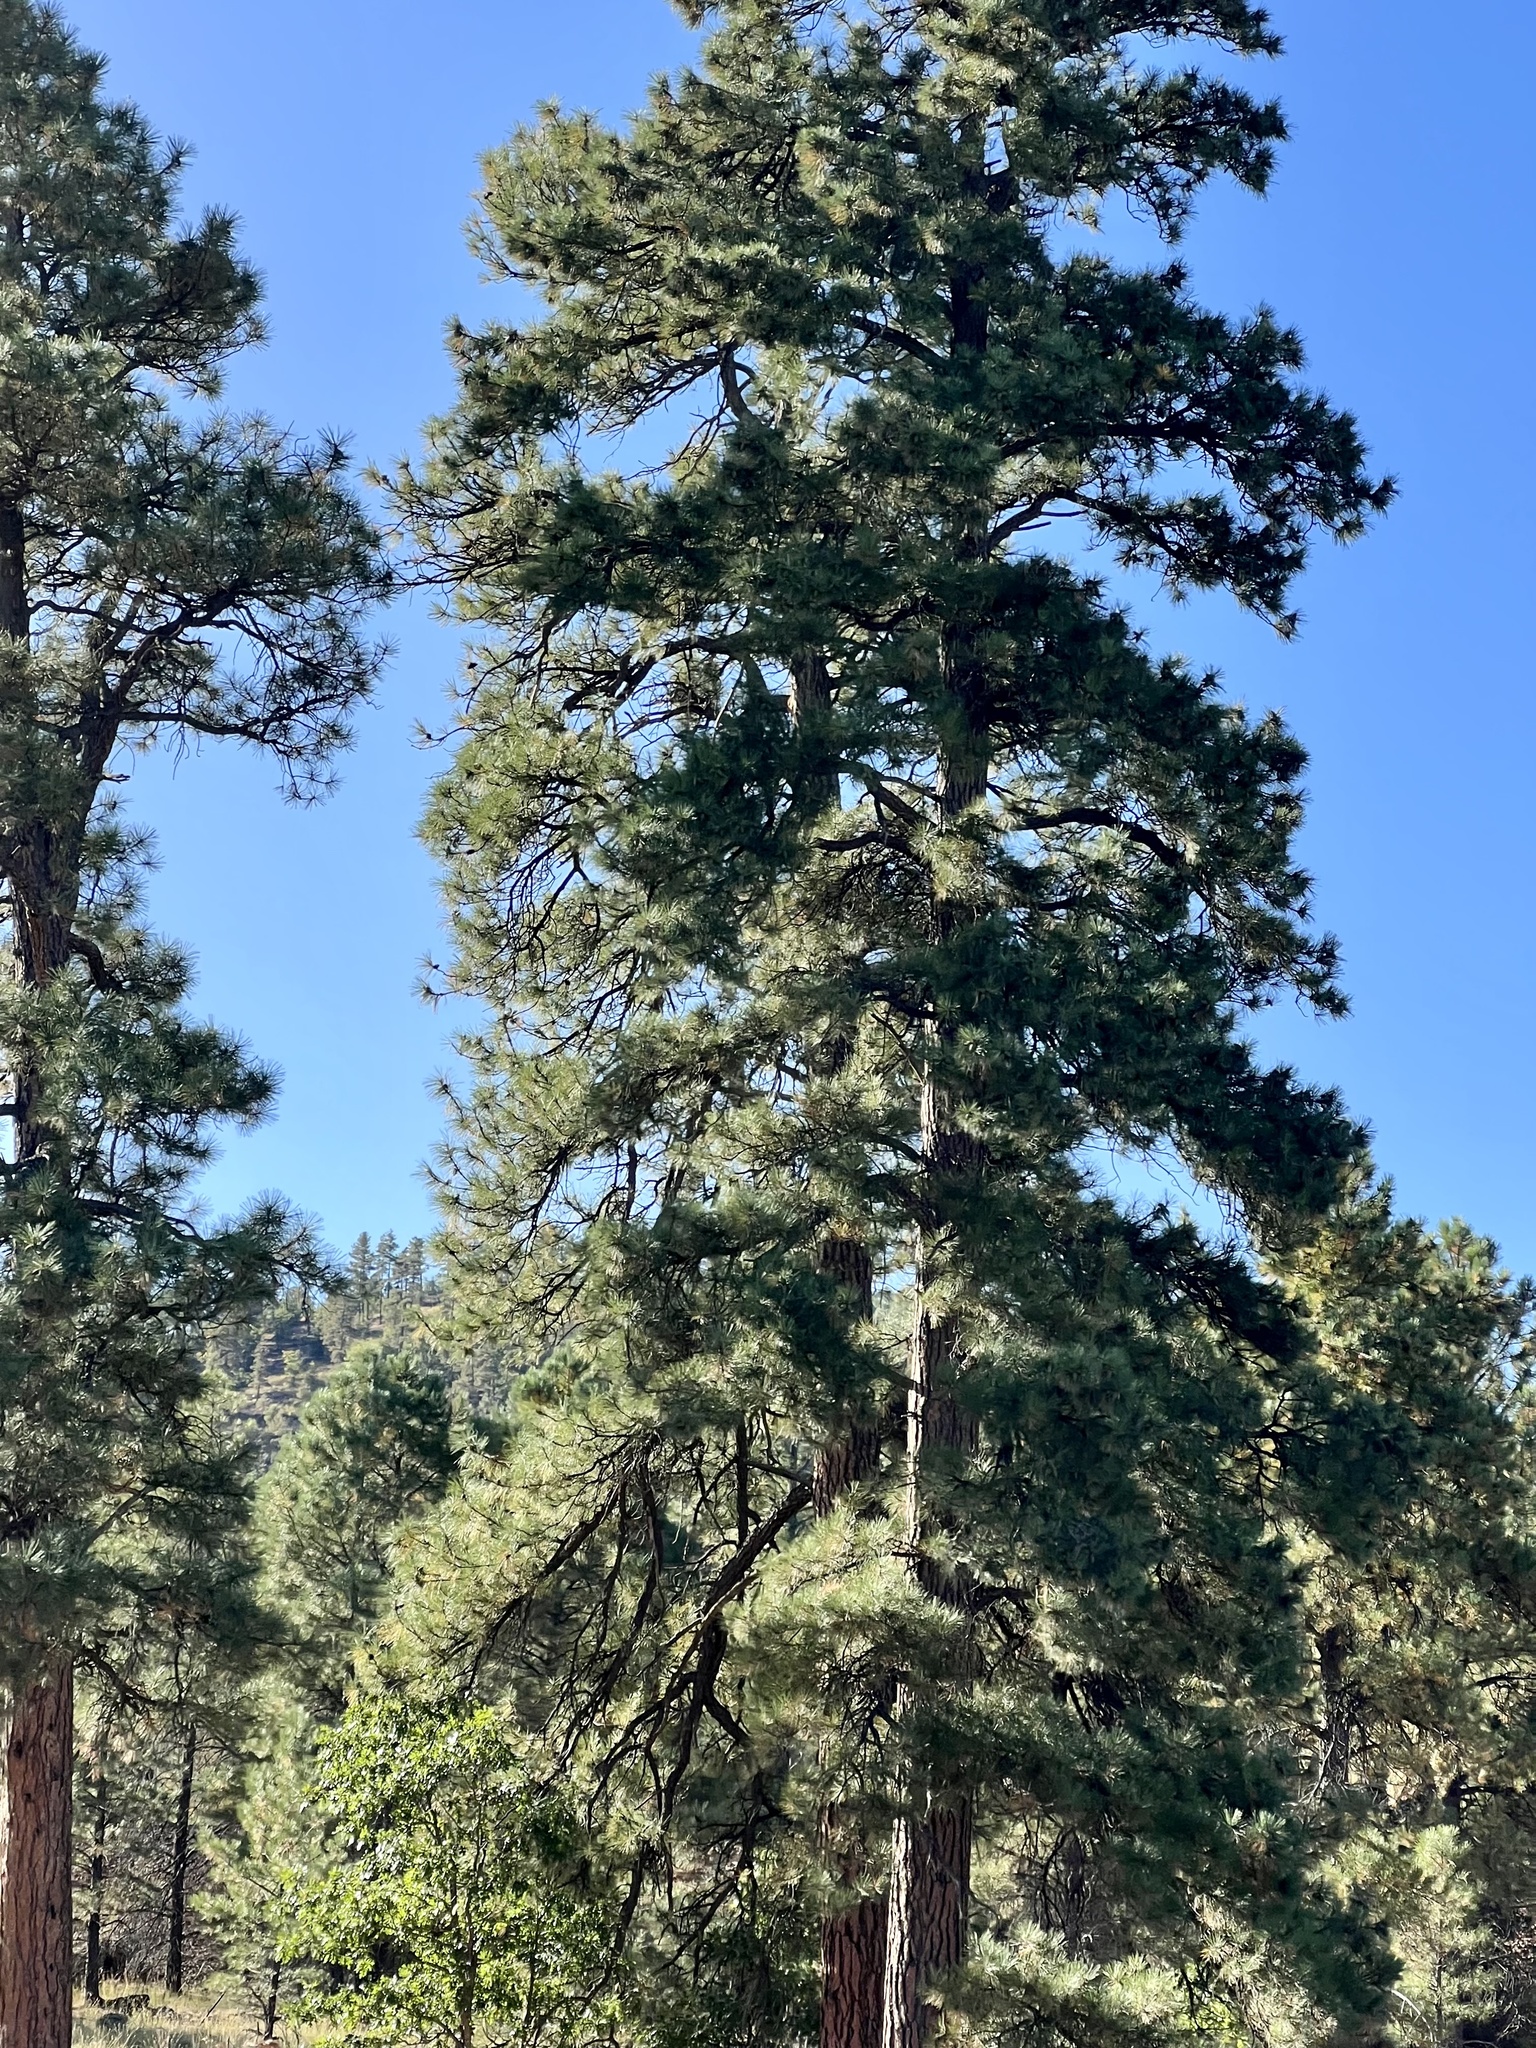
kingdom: Plantae
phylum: Tracheophyta
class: Pinopsida
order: Pinales
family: Pinaceae
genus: Pinus
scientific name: Pinus ponderosa
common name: Western yellow-pine
